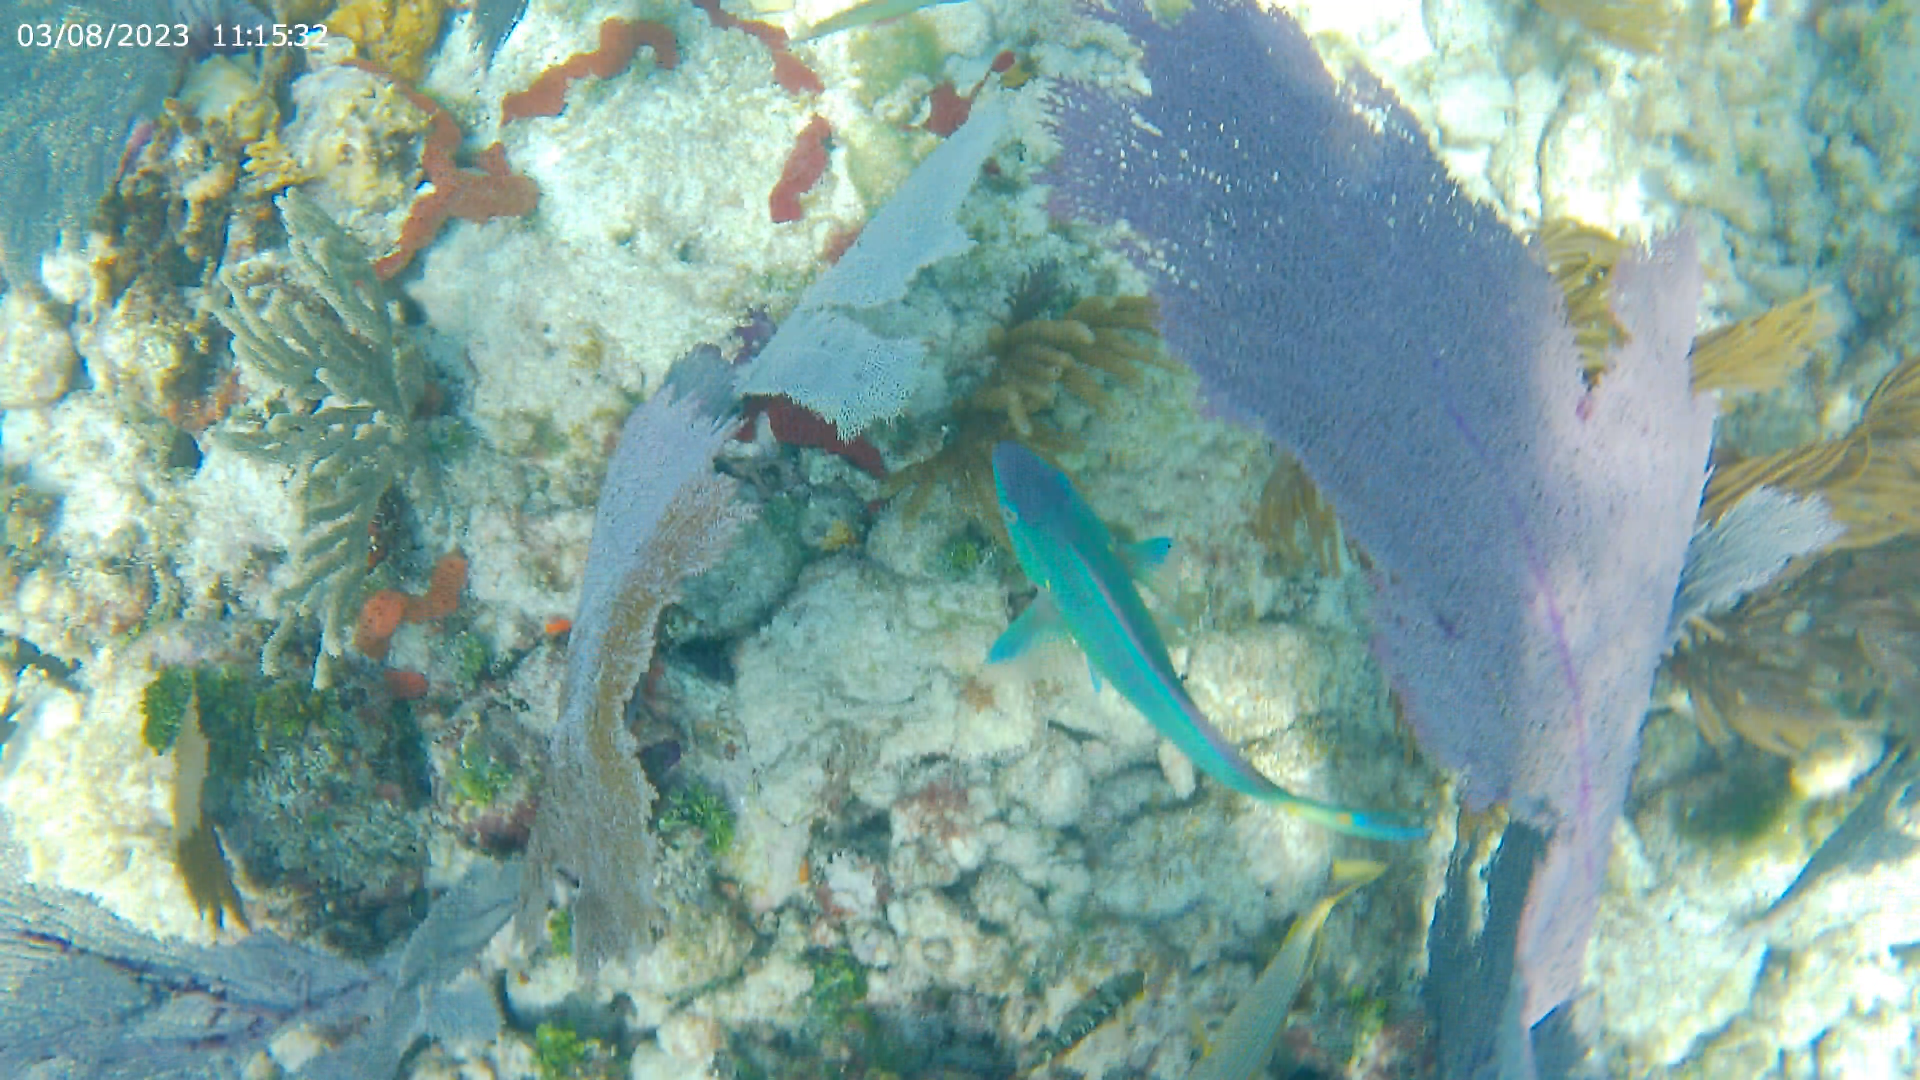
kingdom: Animalia
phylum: Chordata
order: Perciformes
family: Scaridae
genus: Sparisoma
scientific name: Sparisoma viride
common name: Stoplight parrotfish
